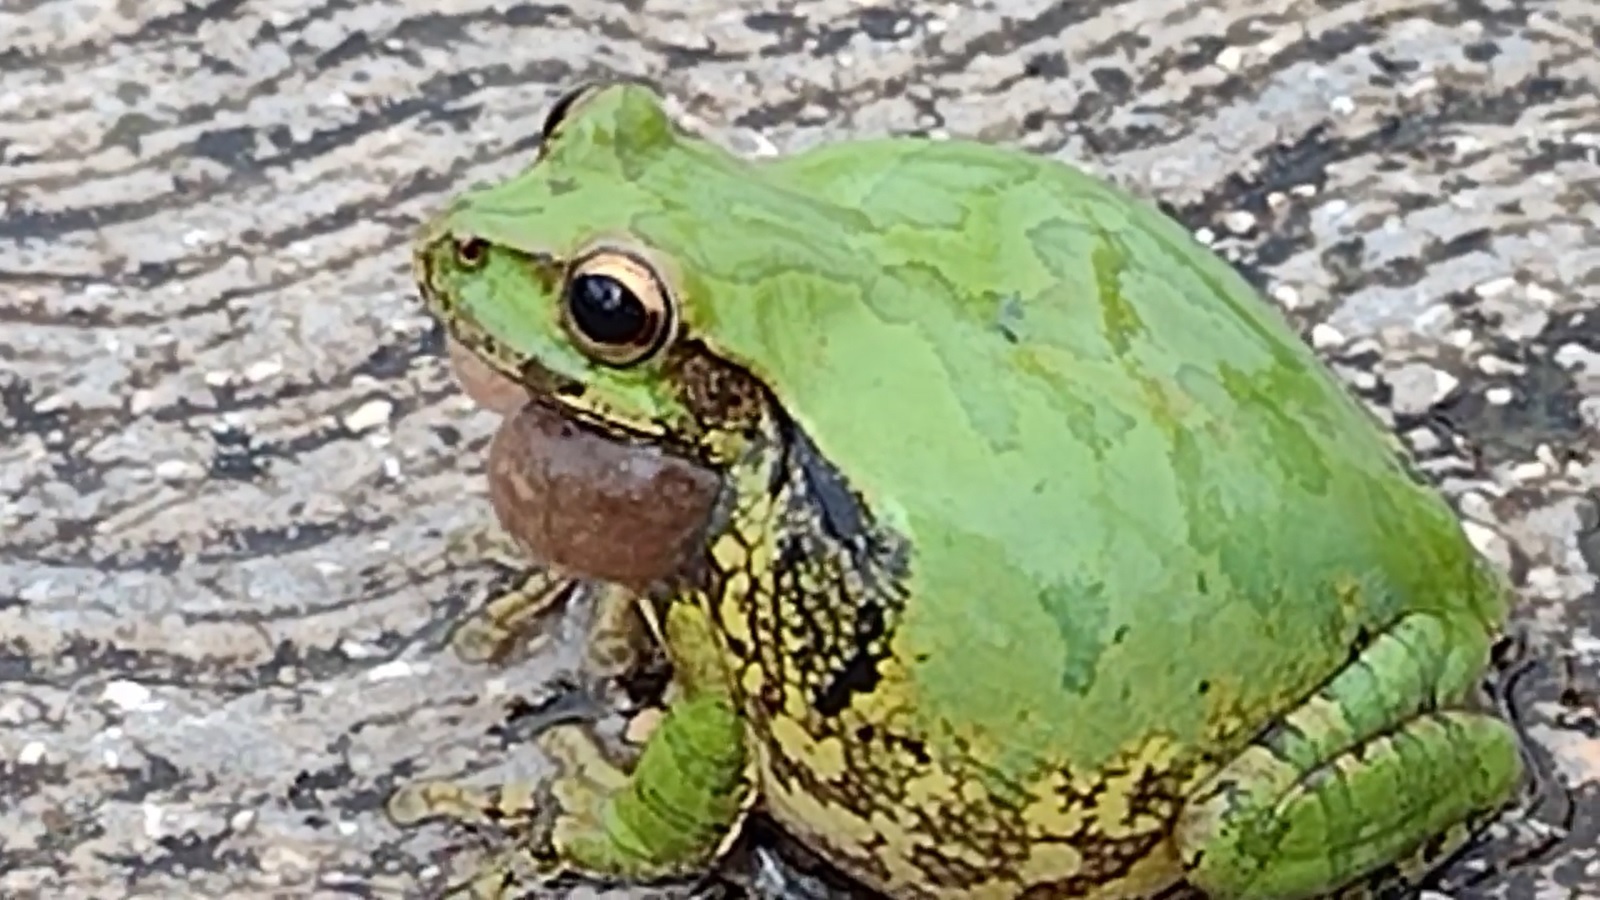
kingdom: Animalia
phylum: Chordata
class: Amphibia
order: Anura
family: Hylidae
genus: Smilisca
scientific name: Smilisca baudinii
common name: Mexican smilisca
